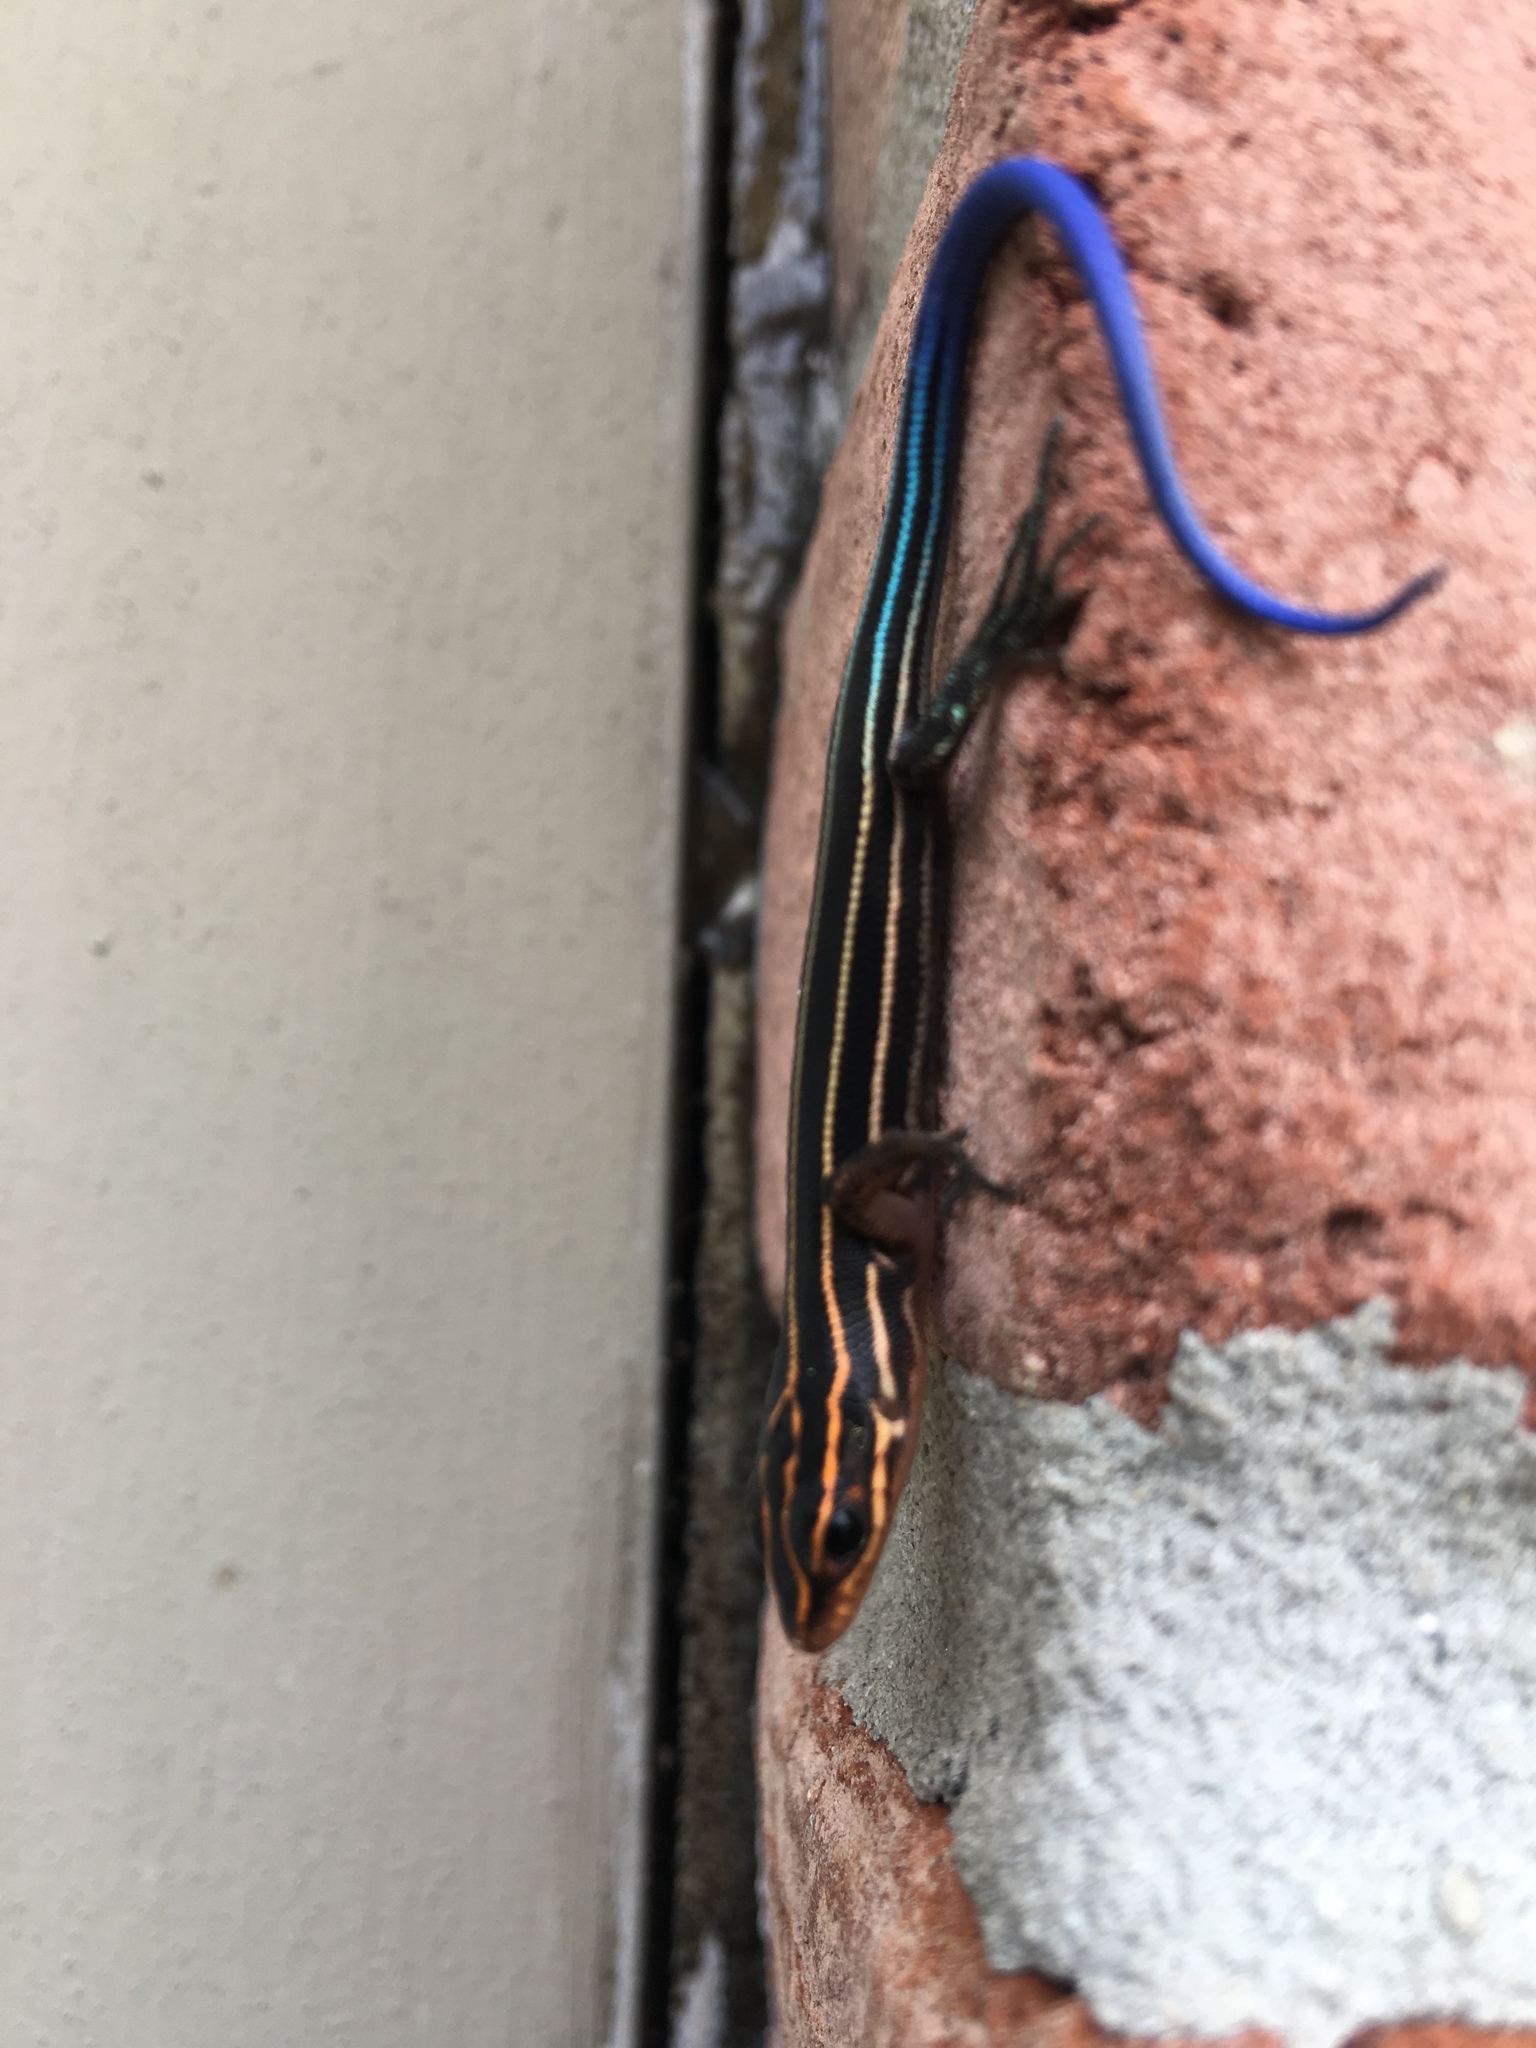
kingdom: Animalia
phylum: Chordata
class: Squamata
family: Scincidae
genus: Plestiodon
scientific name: Plestiodon laticeps
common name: Broadhead skink
